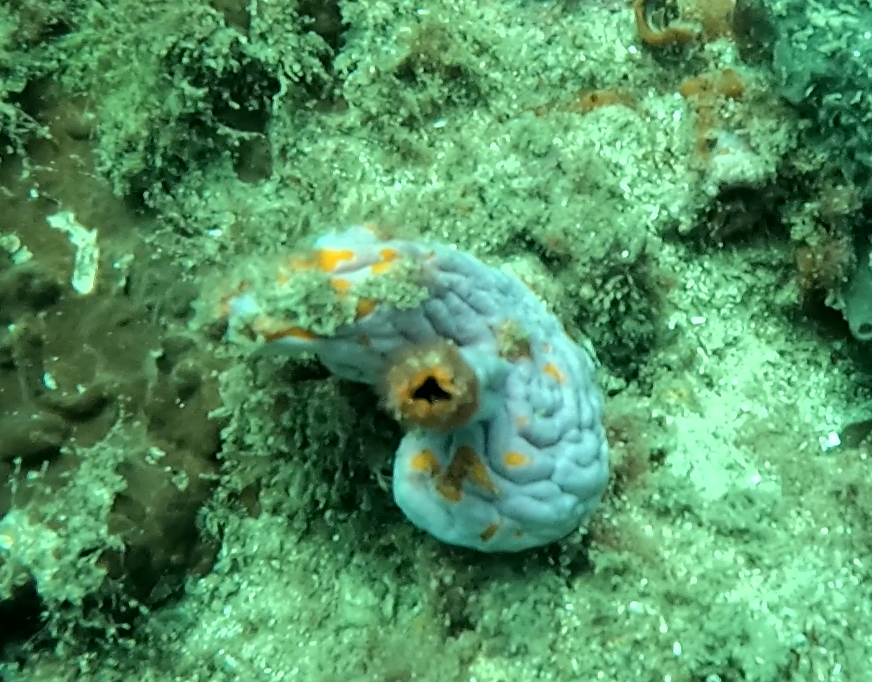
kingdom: Animalia
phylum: Porifera
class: Demospongiae
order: Chondrillida
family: Halisarcidae
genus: Halisarca
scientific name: Halisarca australiensis
